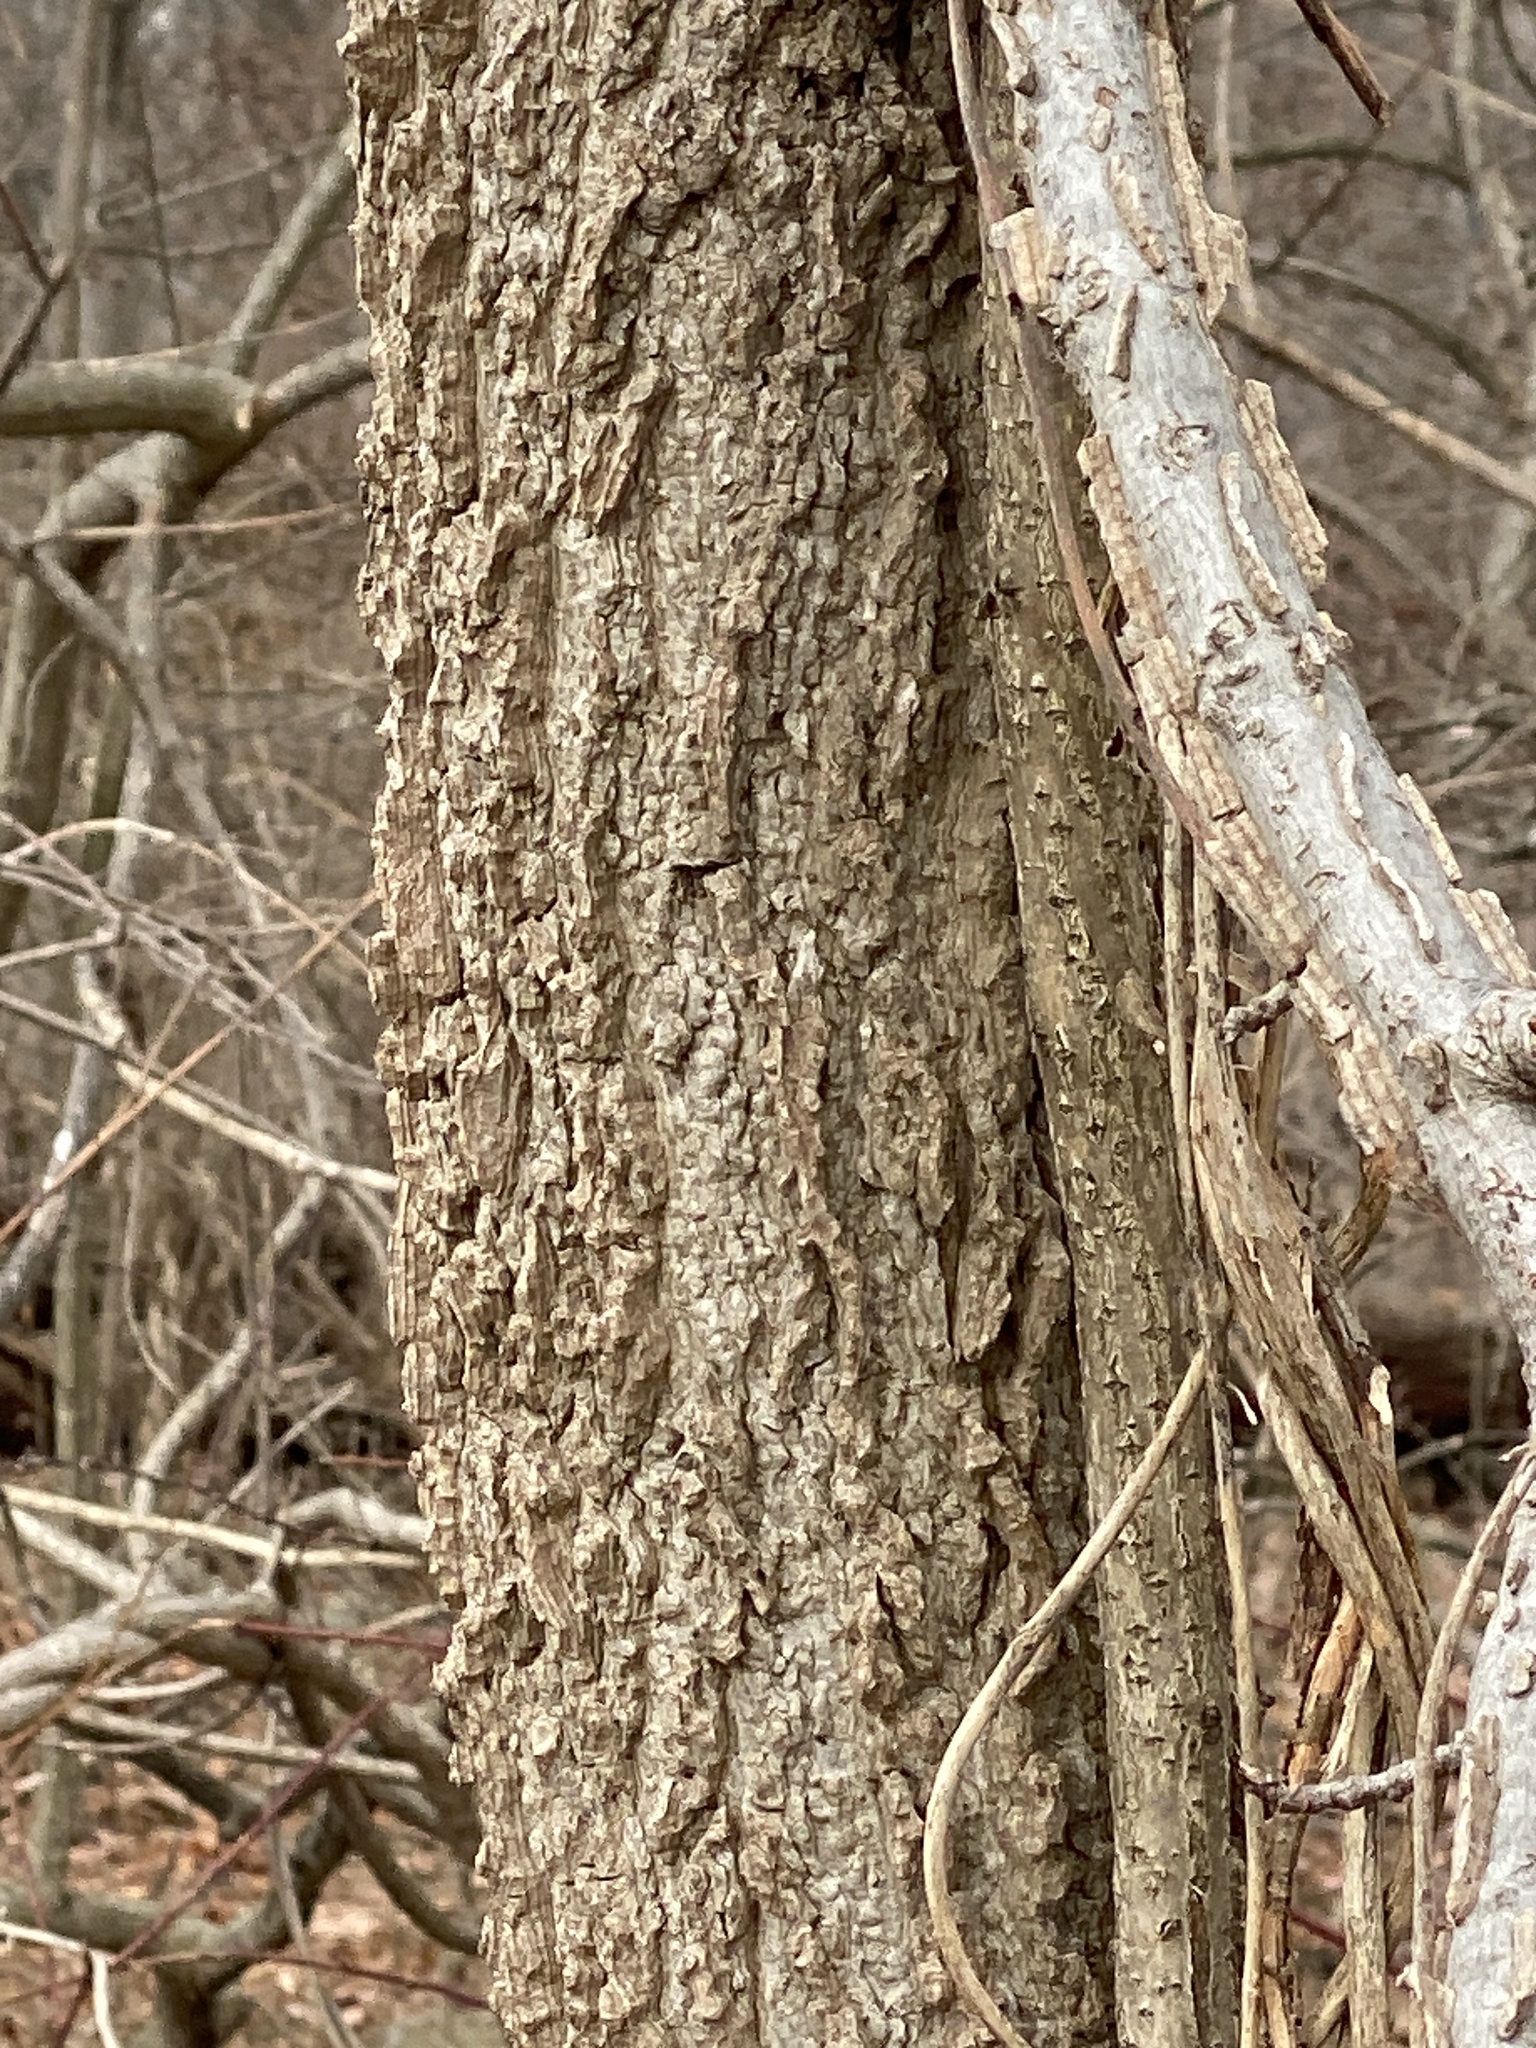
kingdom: Plantae
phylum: Tracheophyta
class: Magnoliopsida
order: Saxifragales
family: Altingiaceae
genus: Liquidambar
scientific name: Liquidambar styraciflua
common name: Sweet gum
